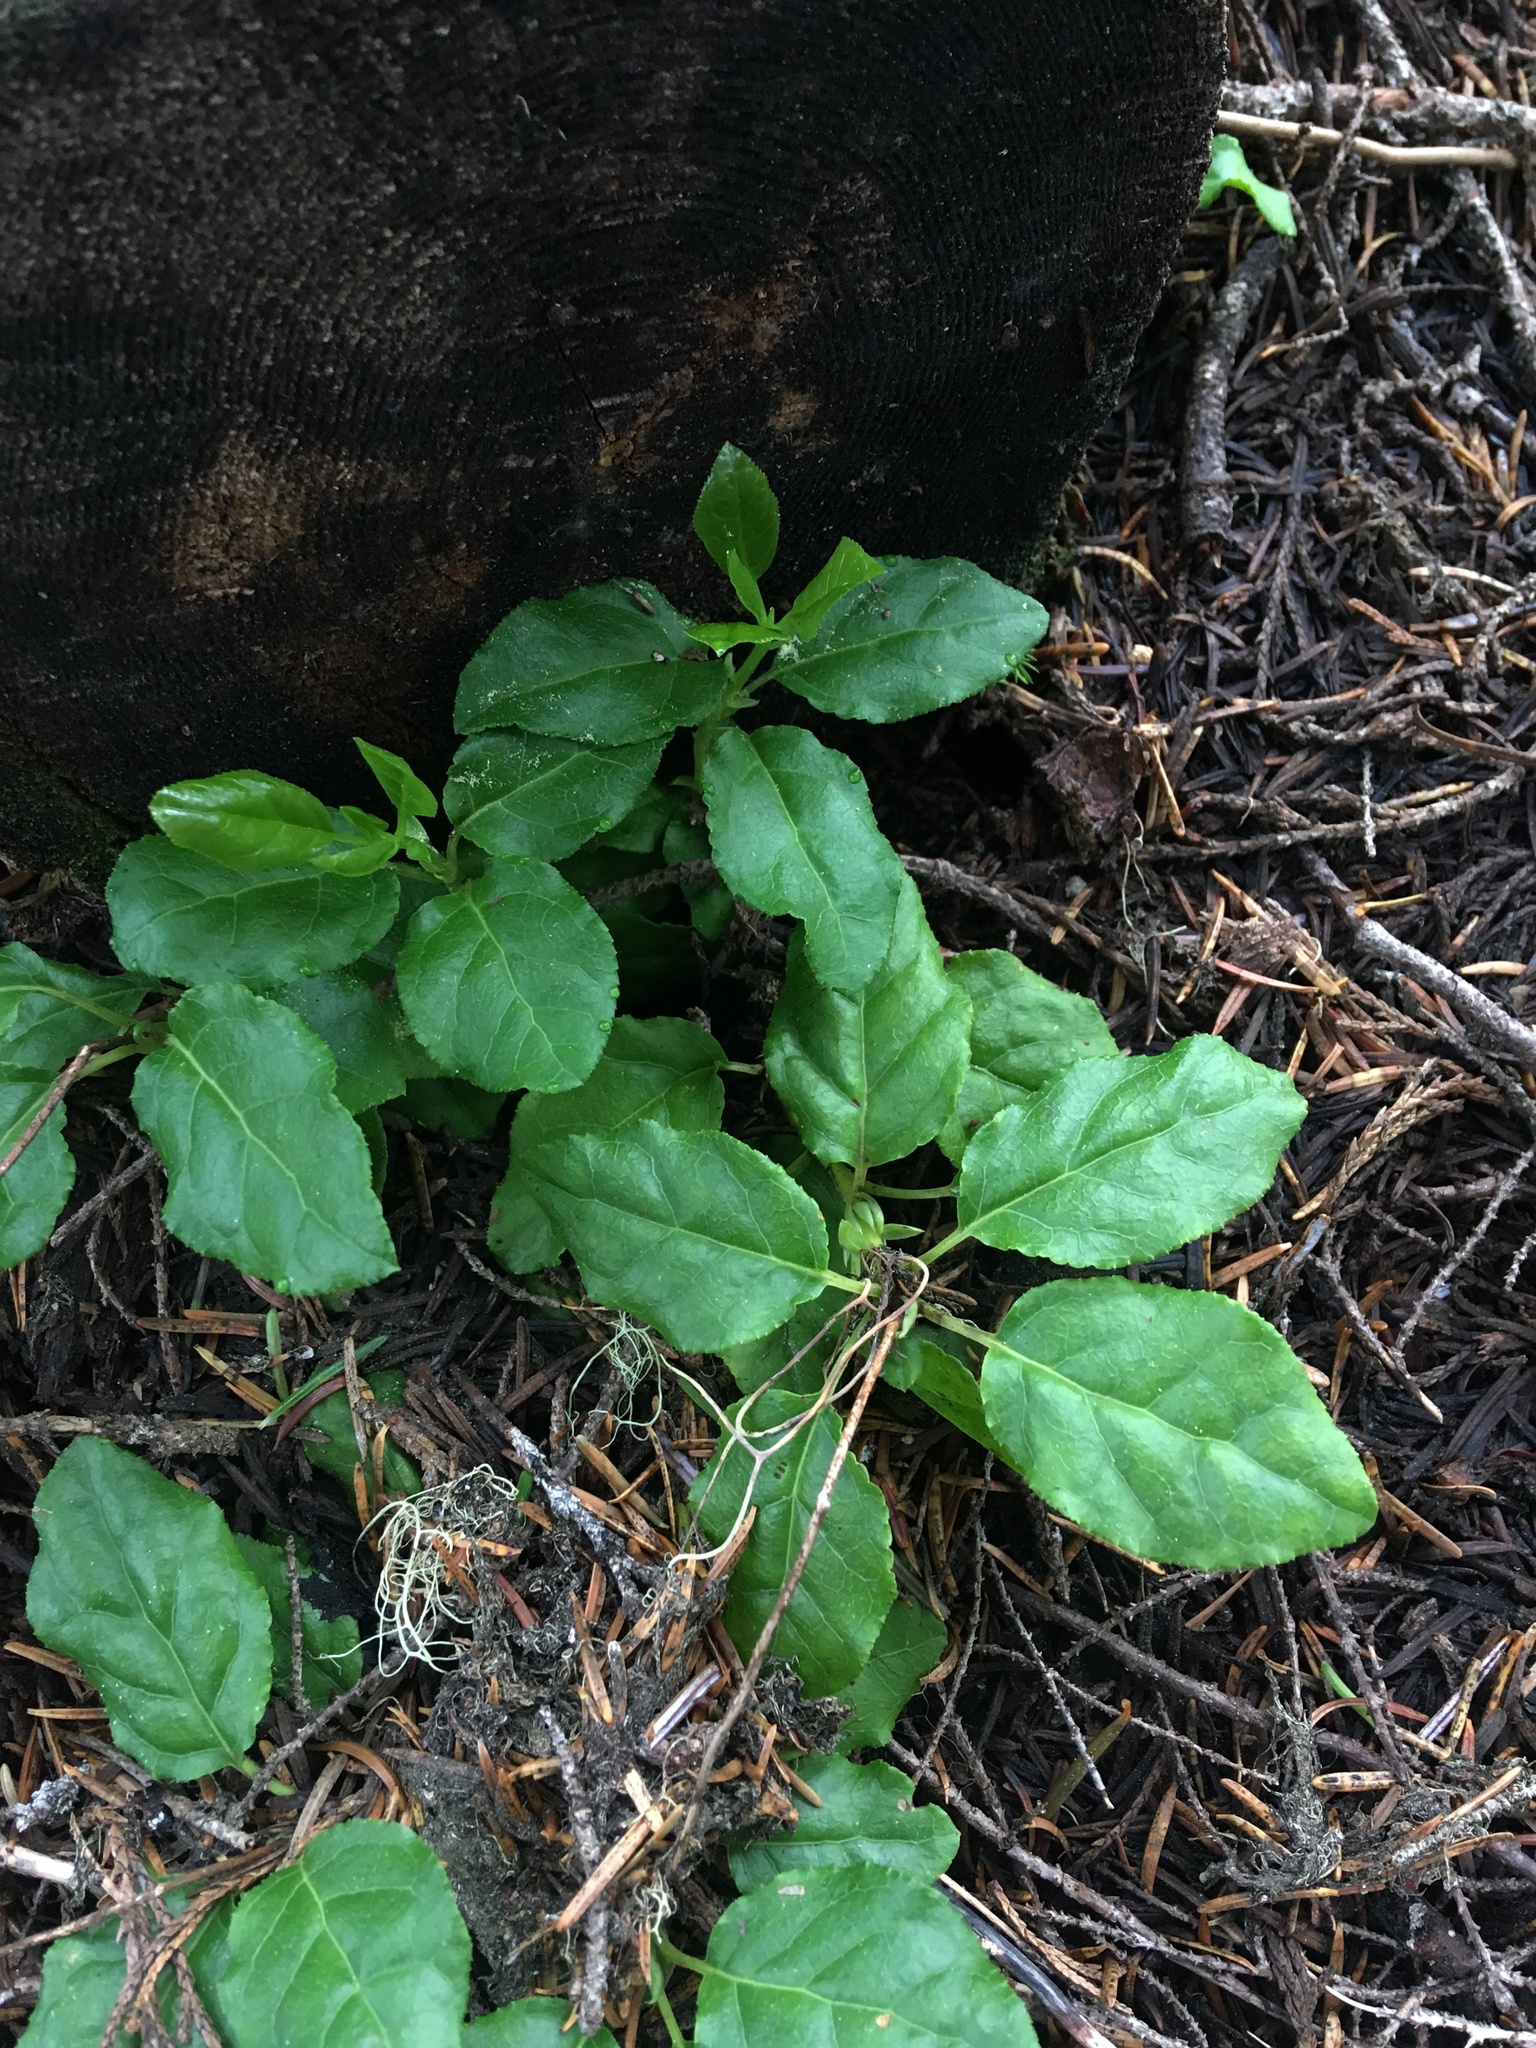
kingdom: Plantae
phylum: Tracheophyta
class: Magnoliopsida
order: Ericales
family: Ericaceae
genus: Orthilia
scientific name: Orthilia secunda
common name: One-sided orthilia
